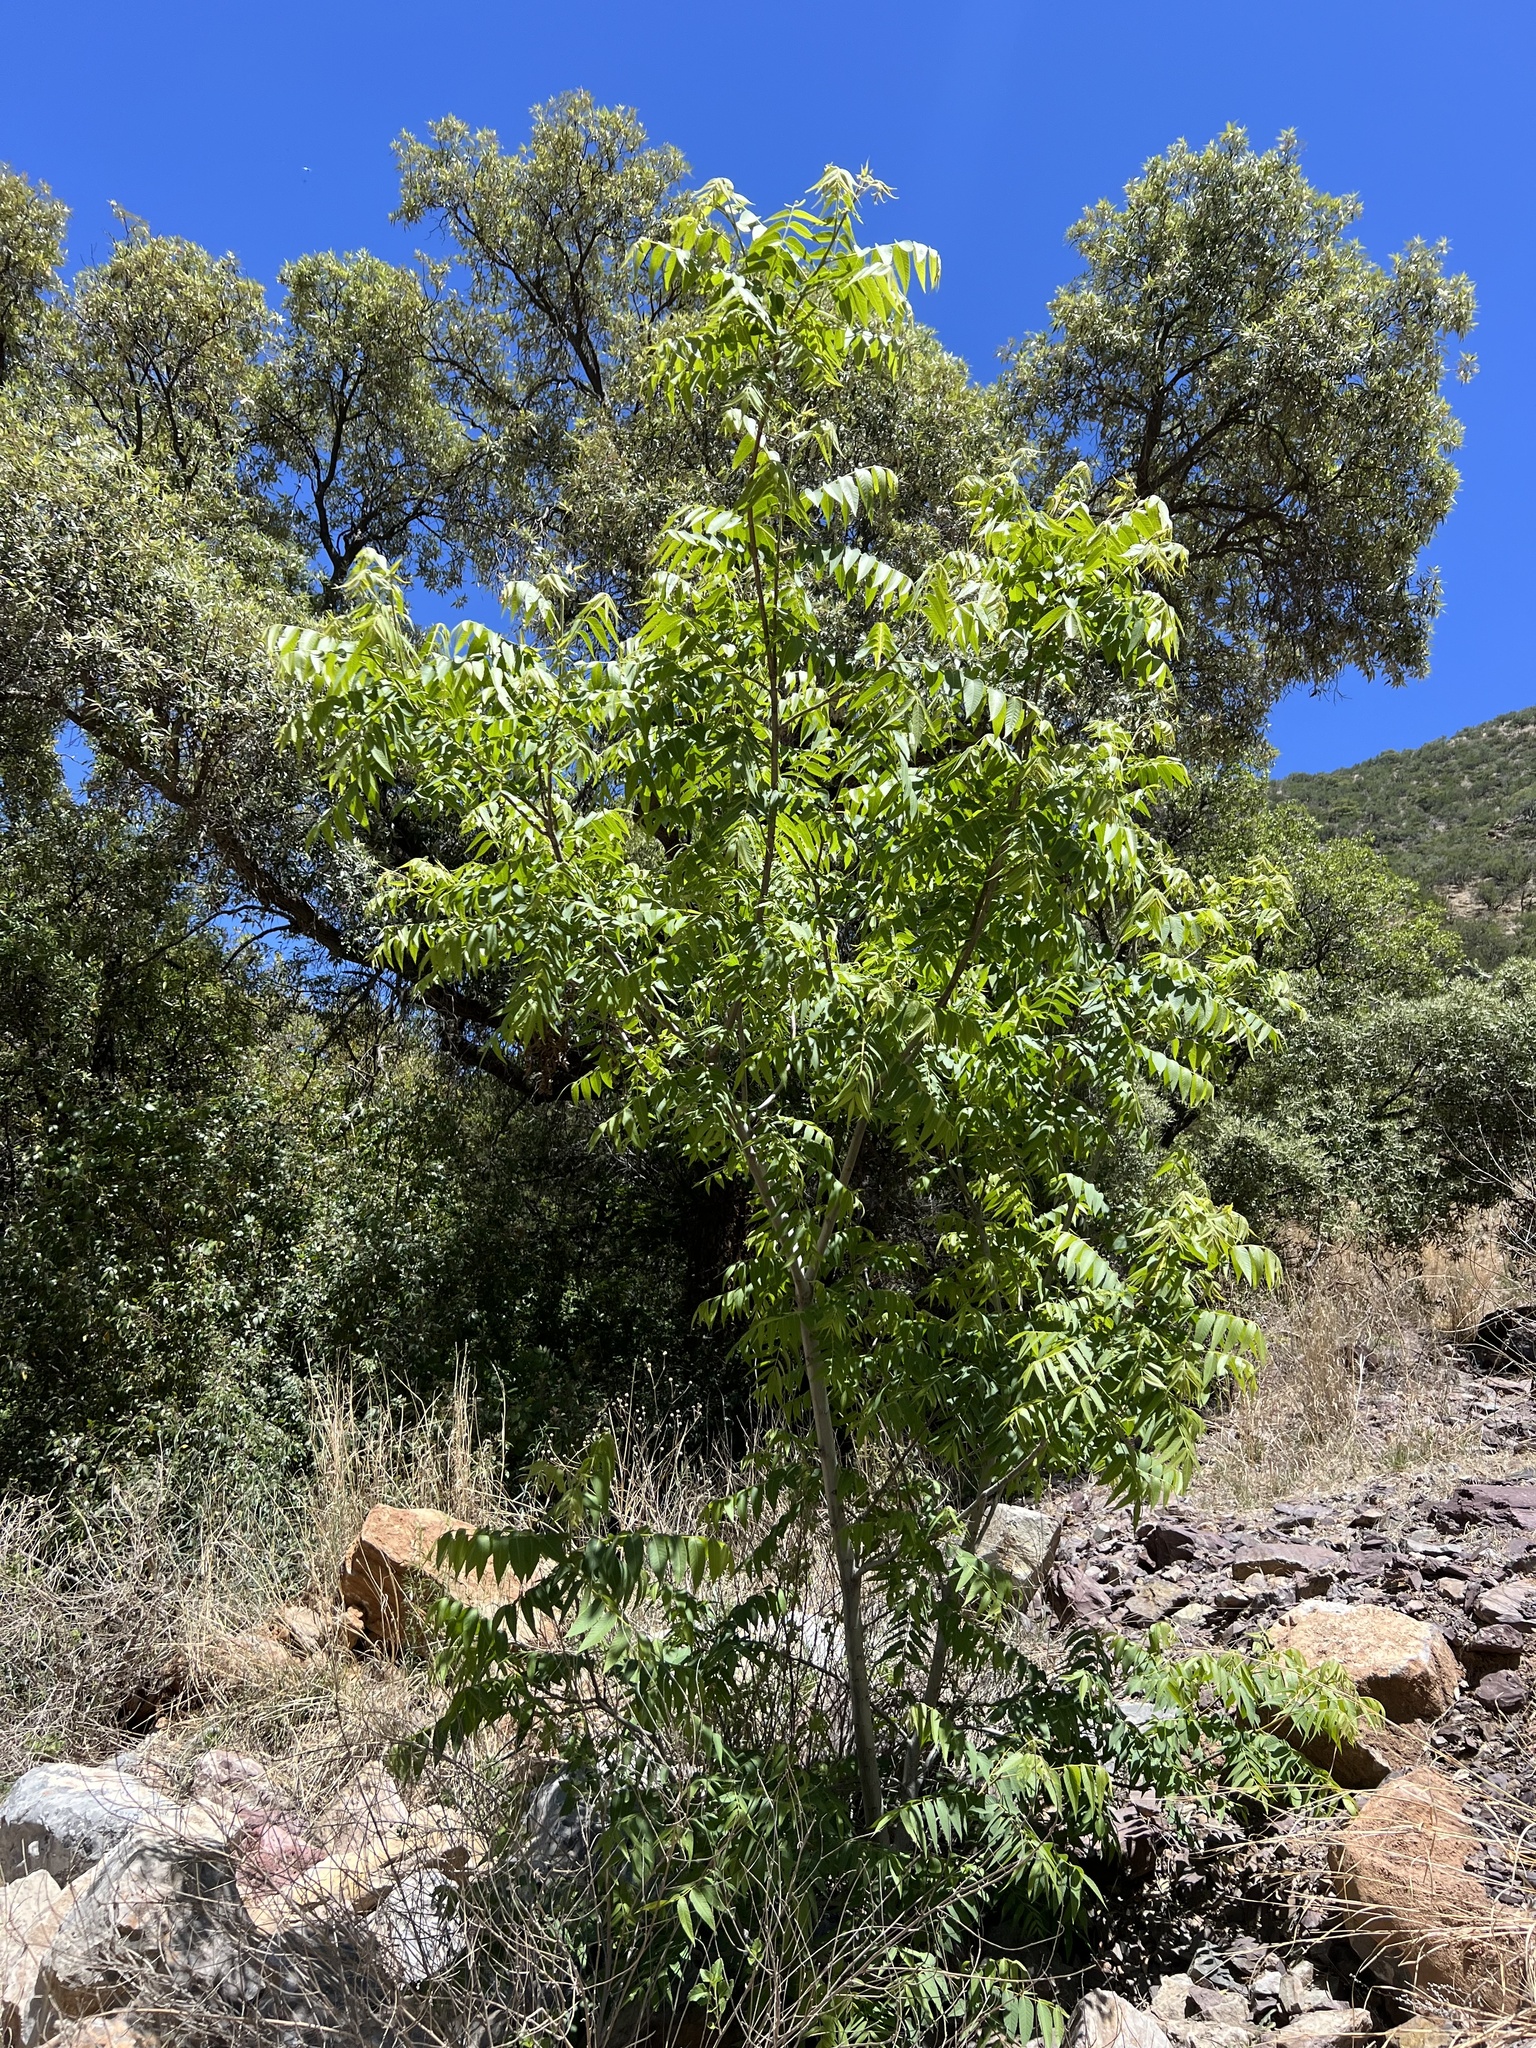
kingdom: Plantae
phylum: Tracheophyta
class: Magnoliopsida
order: Fagales
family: Juglandaceae
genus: Juglans
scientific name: Juglans major
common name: Arizona walnut
